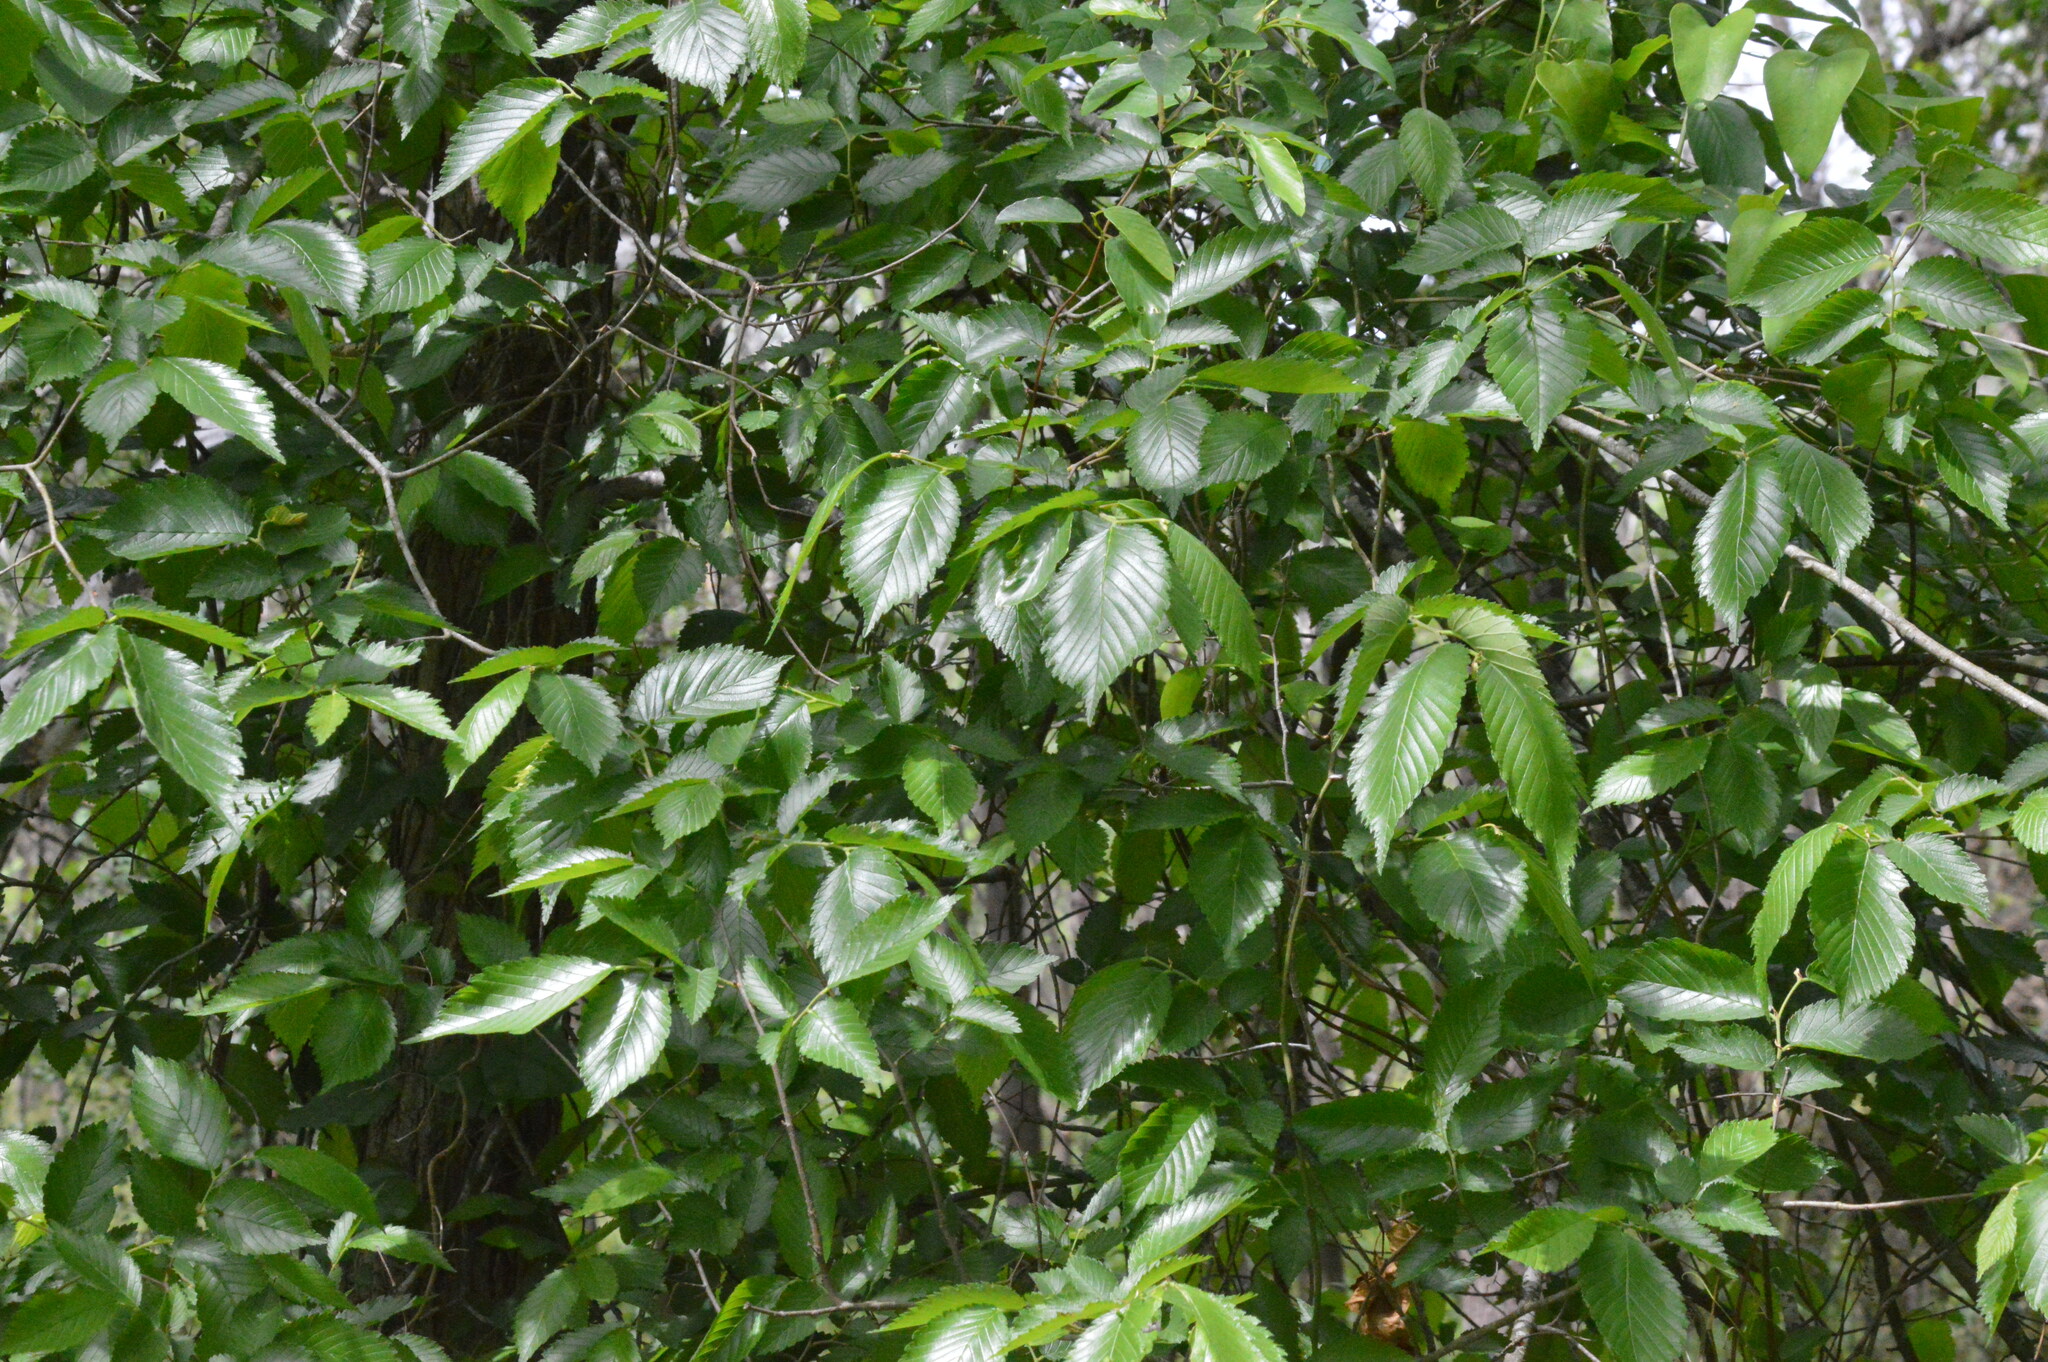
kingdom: Plantae
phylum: Tracheophyta
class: Magnoliopsida
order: Rosales
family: Ulmaceae
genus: Ulmus
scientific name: Ulmus americana
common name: American elm
